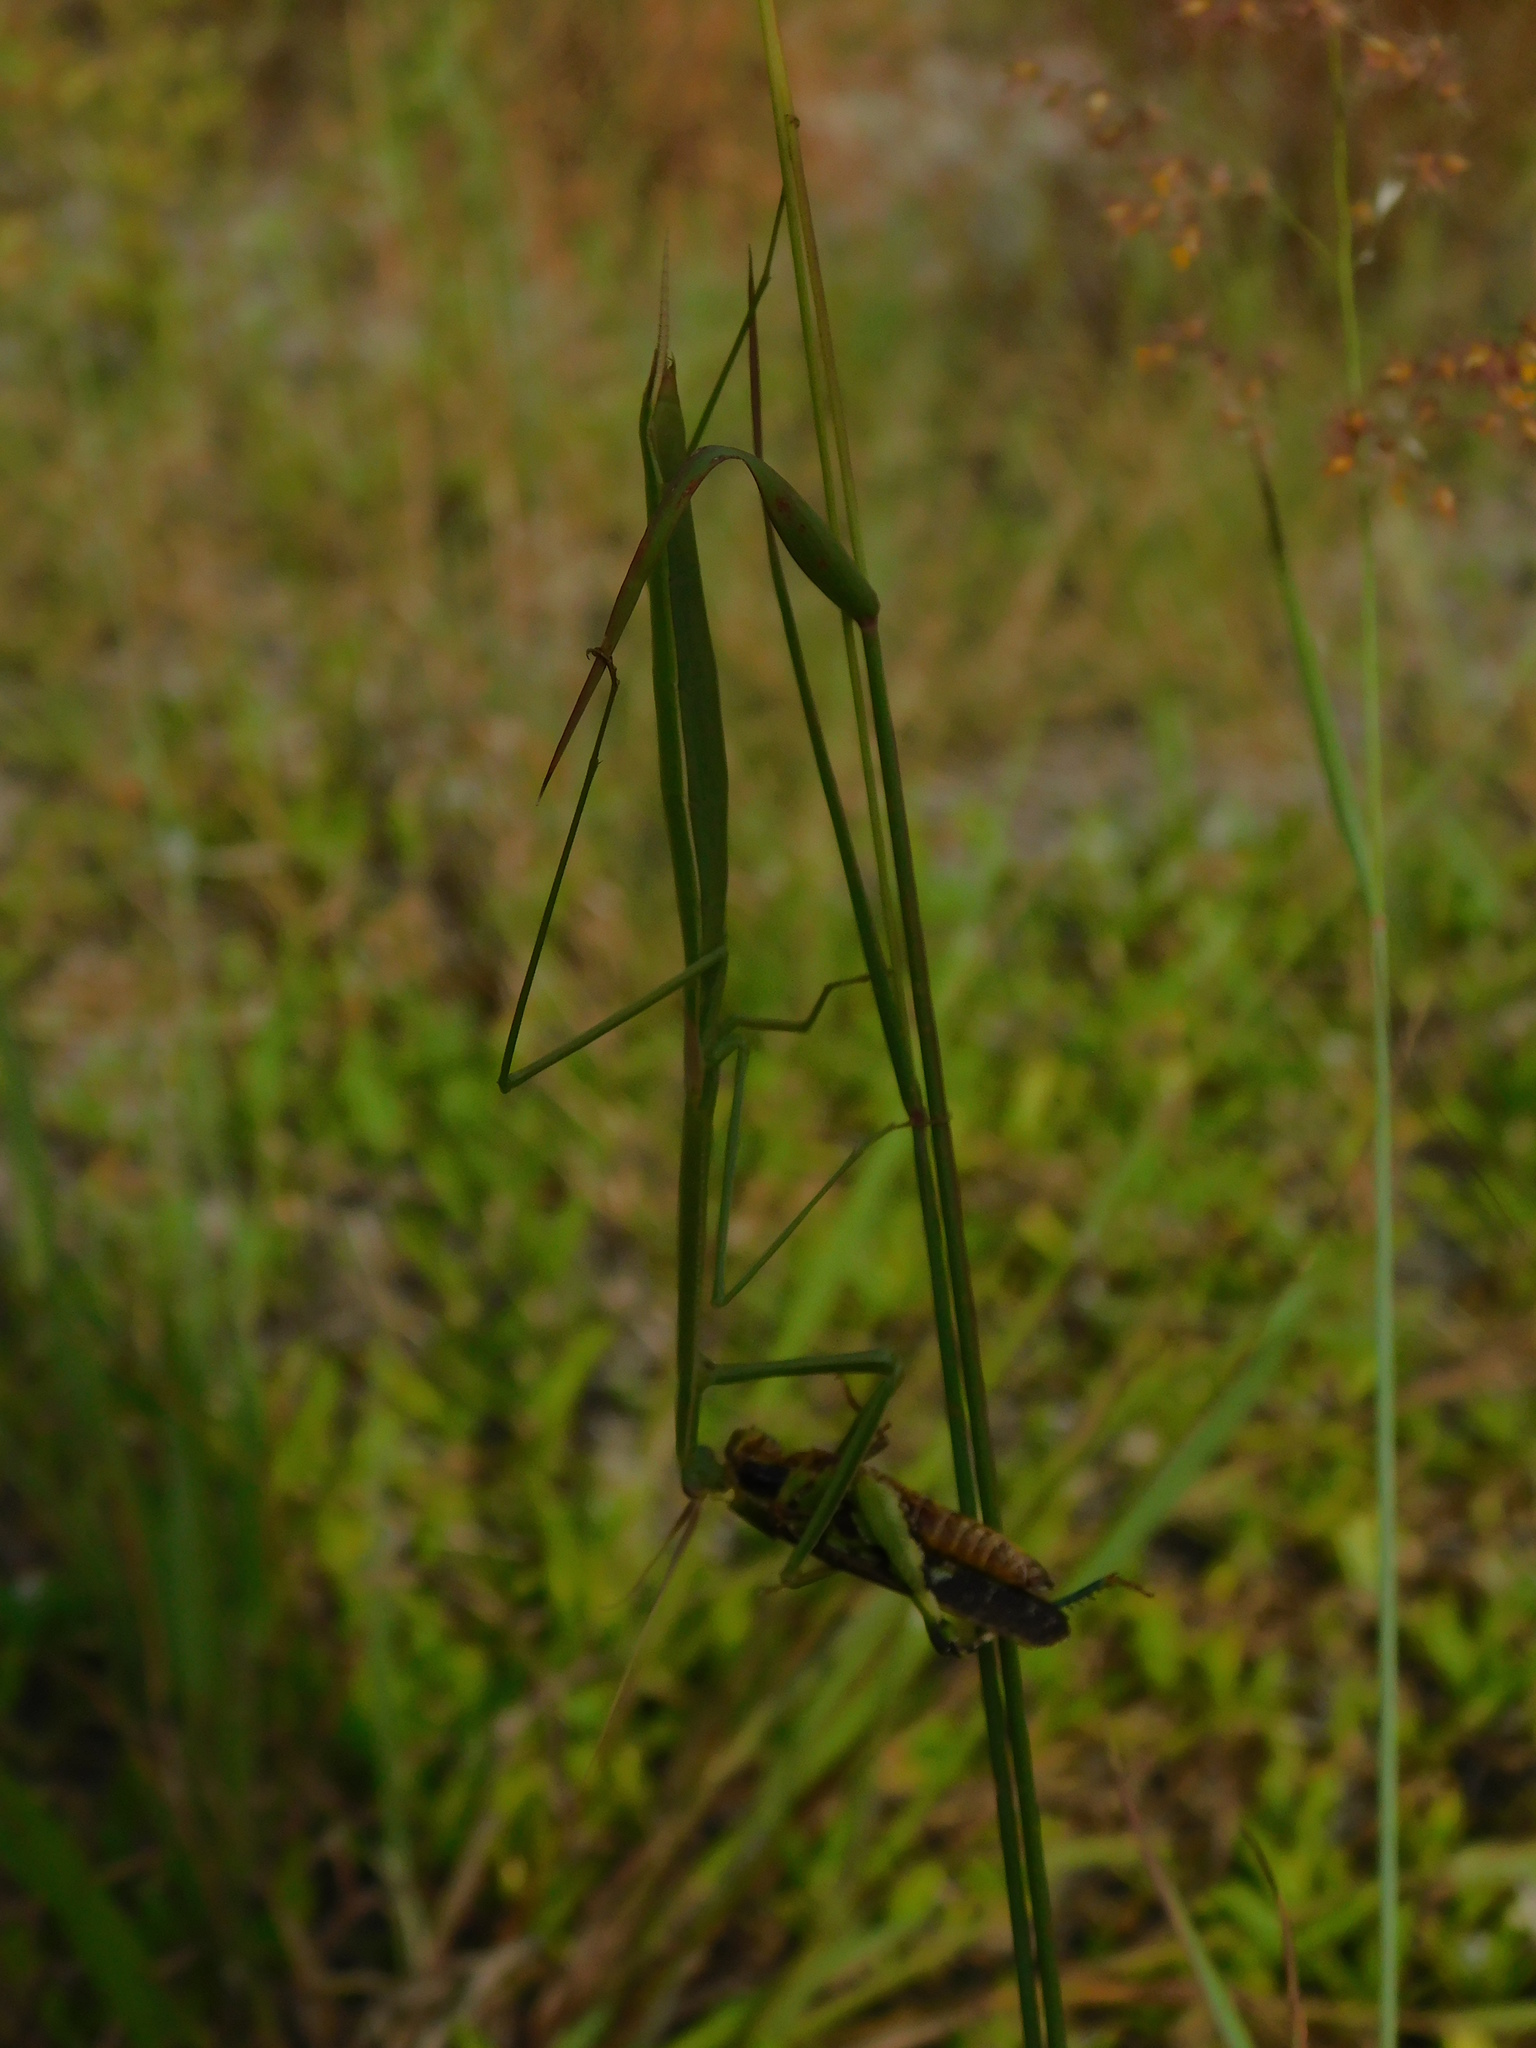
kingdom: Animalia
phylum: Arthropoda
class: Insecta
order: Mantodea
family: Coptopterygidae
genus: Brunneria
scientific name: Brunneria borealis
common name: Mantis
